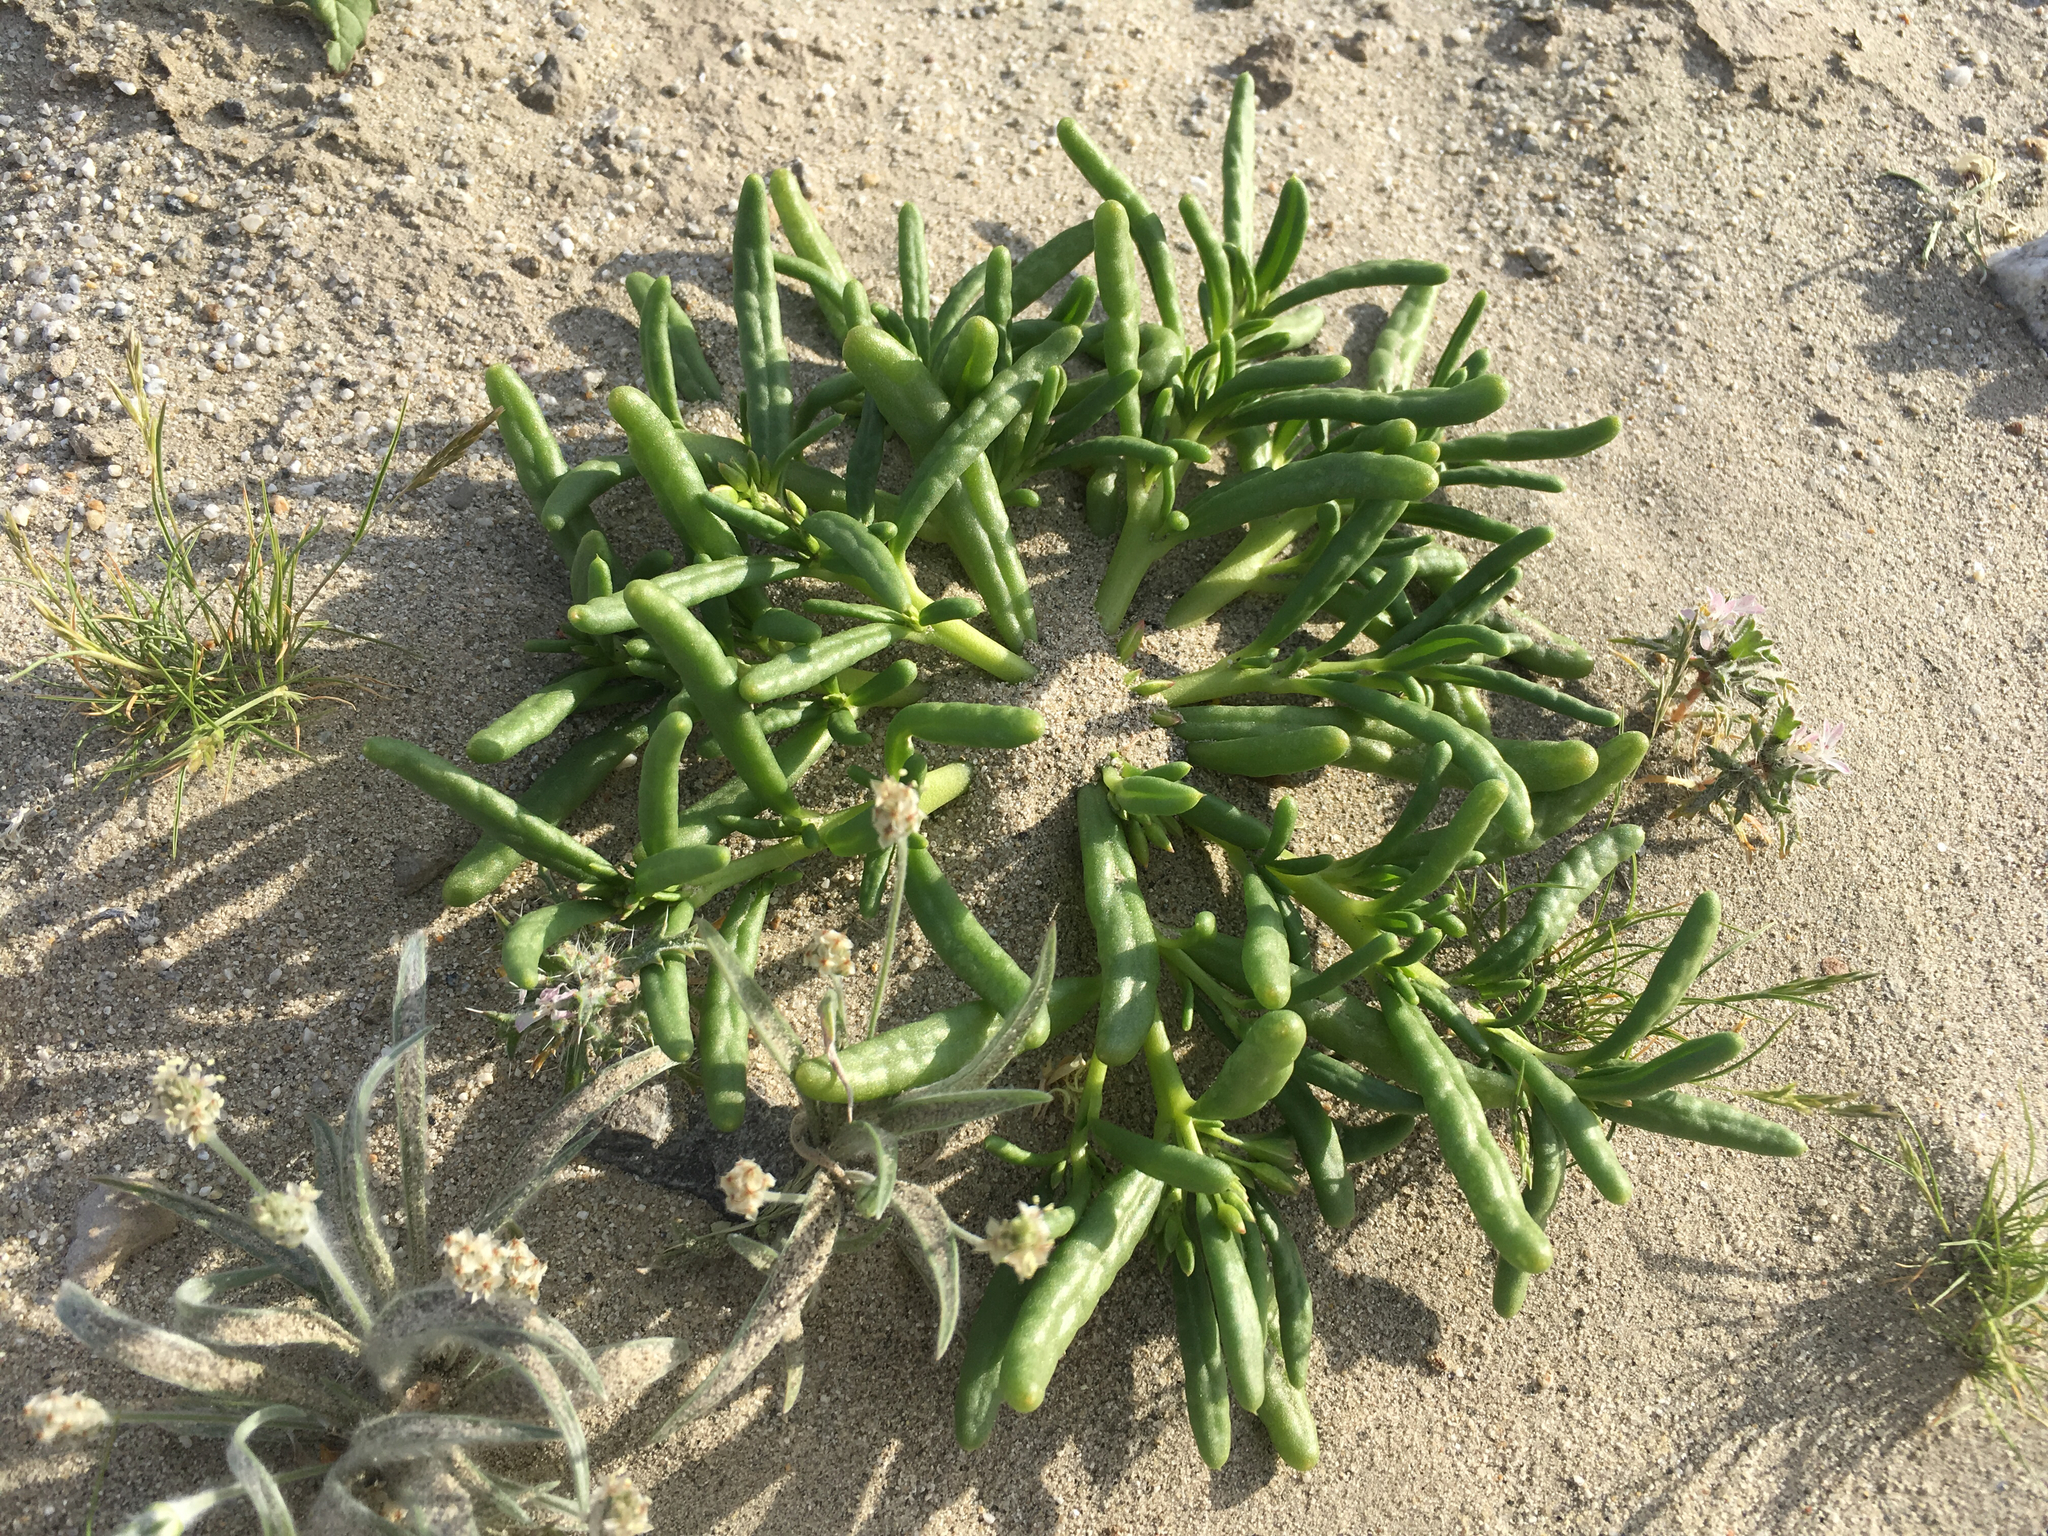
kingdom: Plantae
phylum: Tracheophyta
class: Magnoliopsida
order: Caryophyllales
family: Montiaceae
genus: Thingia
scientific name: Thingia ambigua
